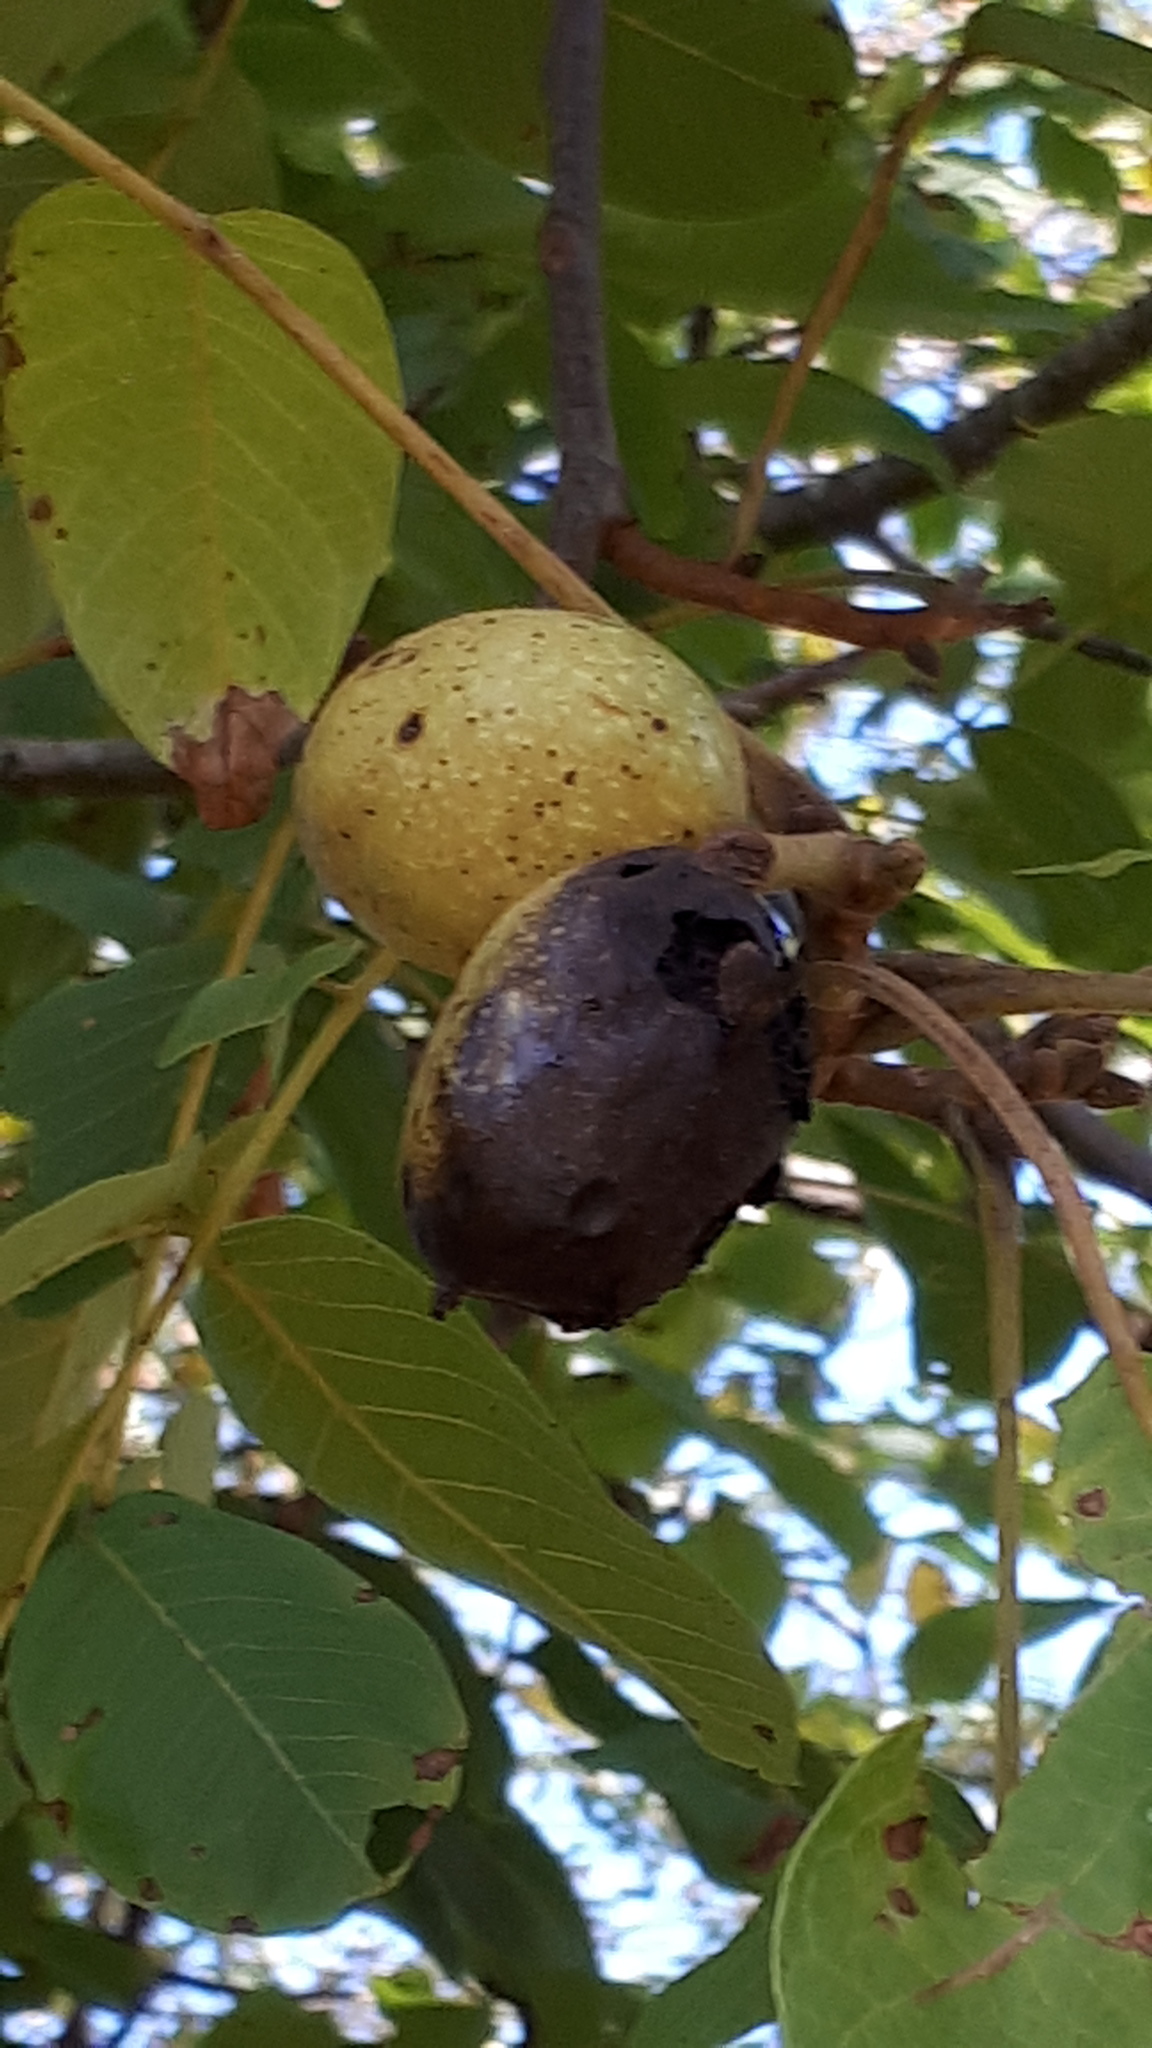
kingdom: Plantae
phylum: Tracheophyta
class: Magnoliopsida
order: Fagales
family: Juglandaceae
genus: Juglans
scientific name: Juglans regia
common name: Walnut
